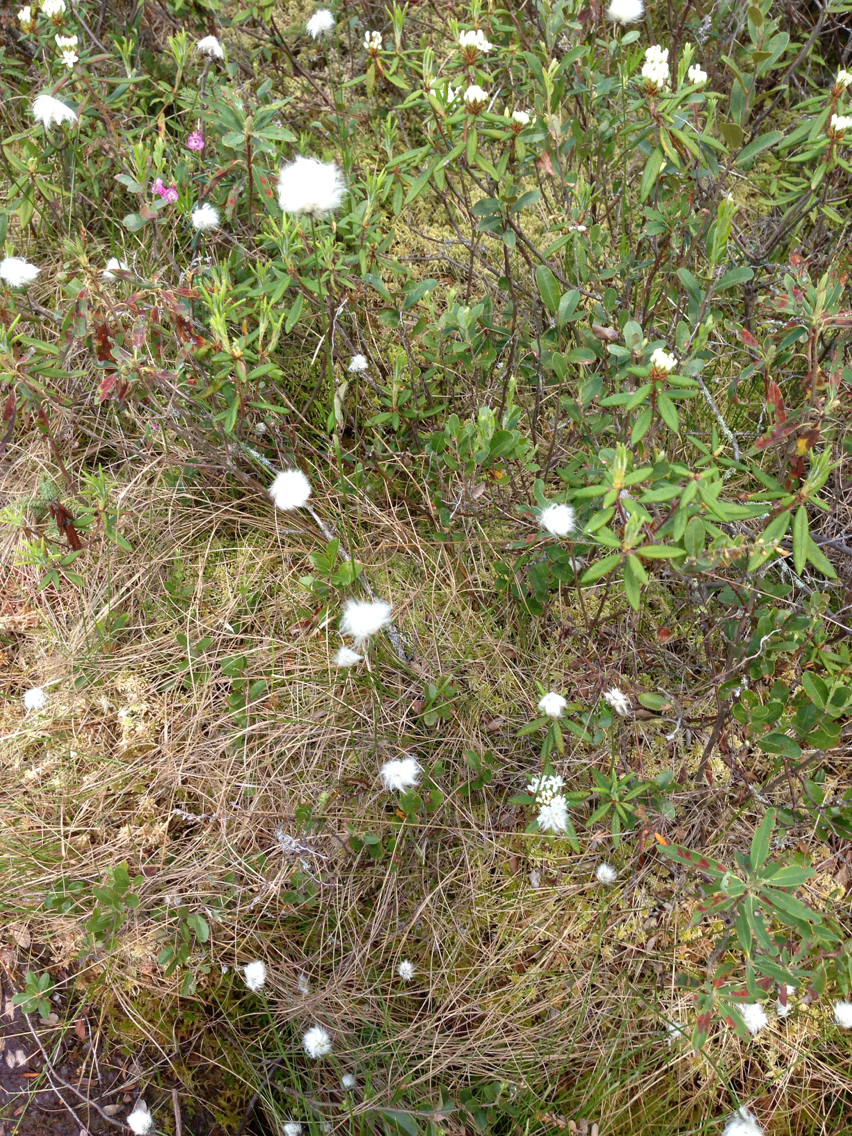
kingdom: Plantae
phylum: Tracheophyta
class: Liliopsida
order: Poales
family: Cyperaceae
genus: Eriophorum
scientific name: Eriophorum vaginatum
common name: Hare's-tail cottongrass
